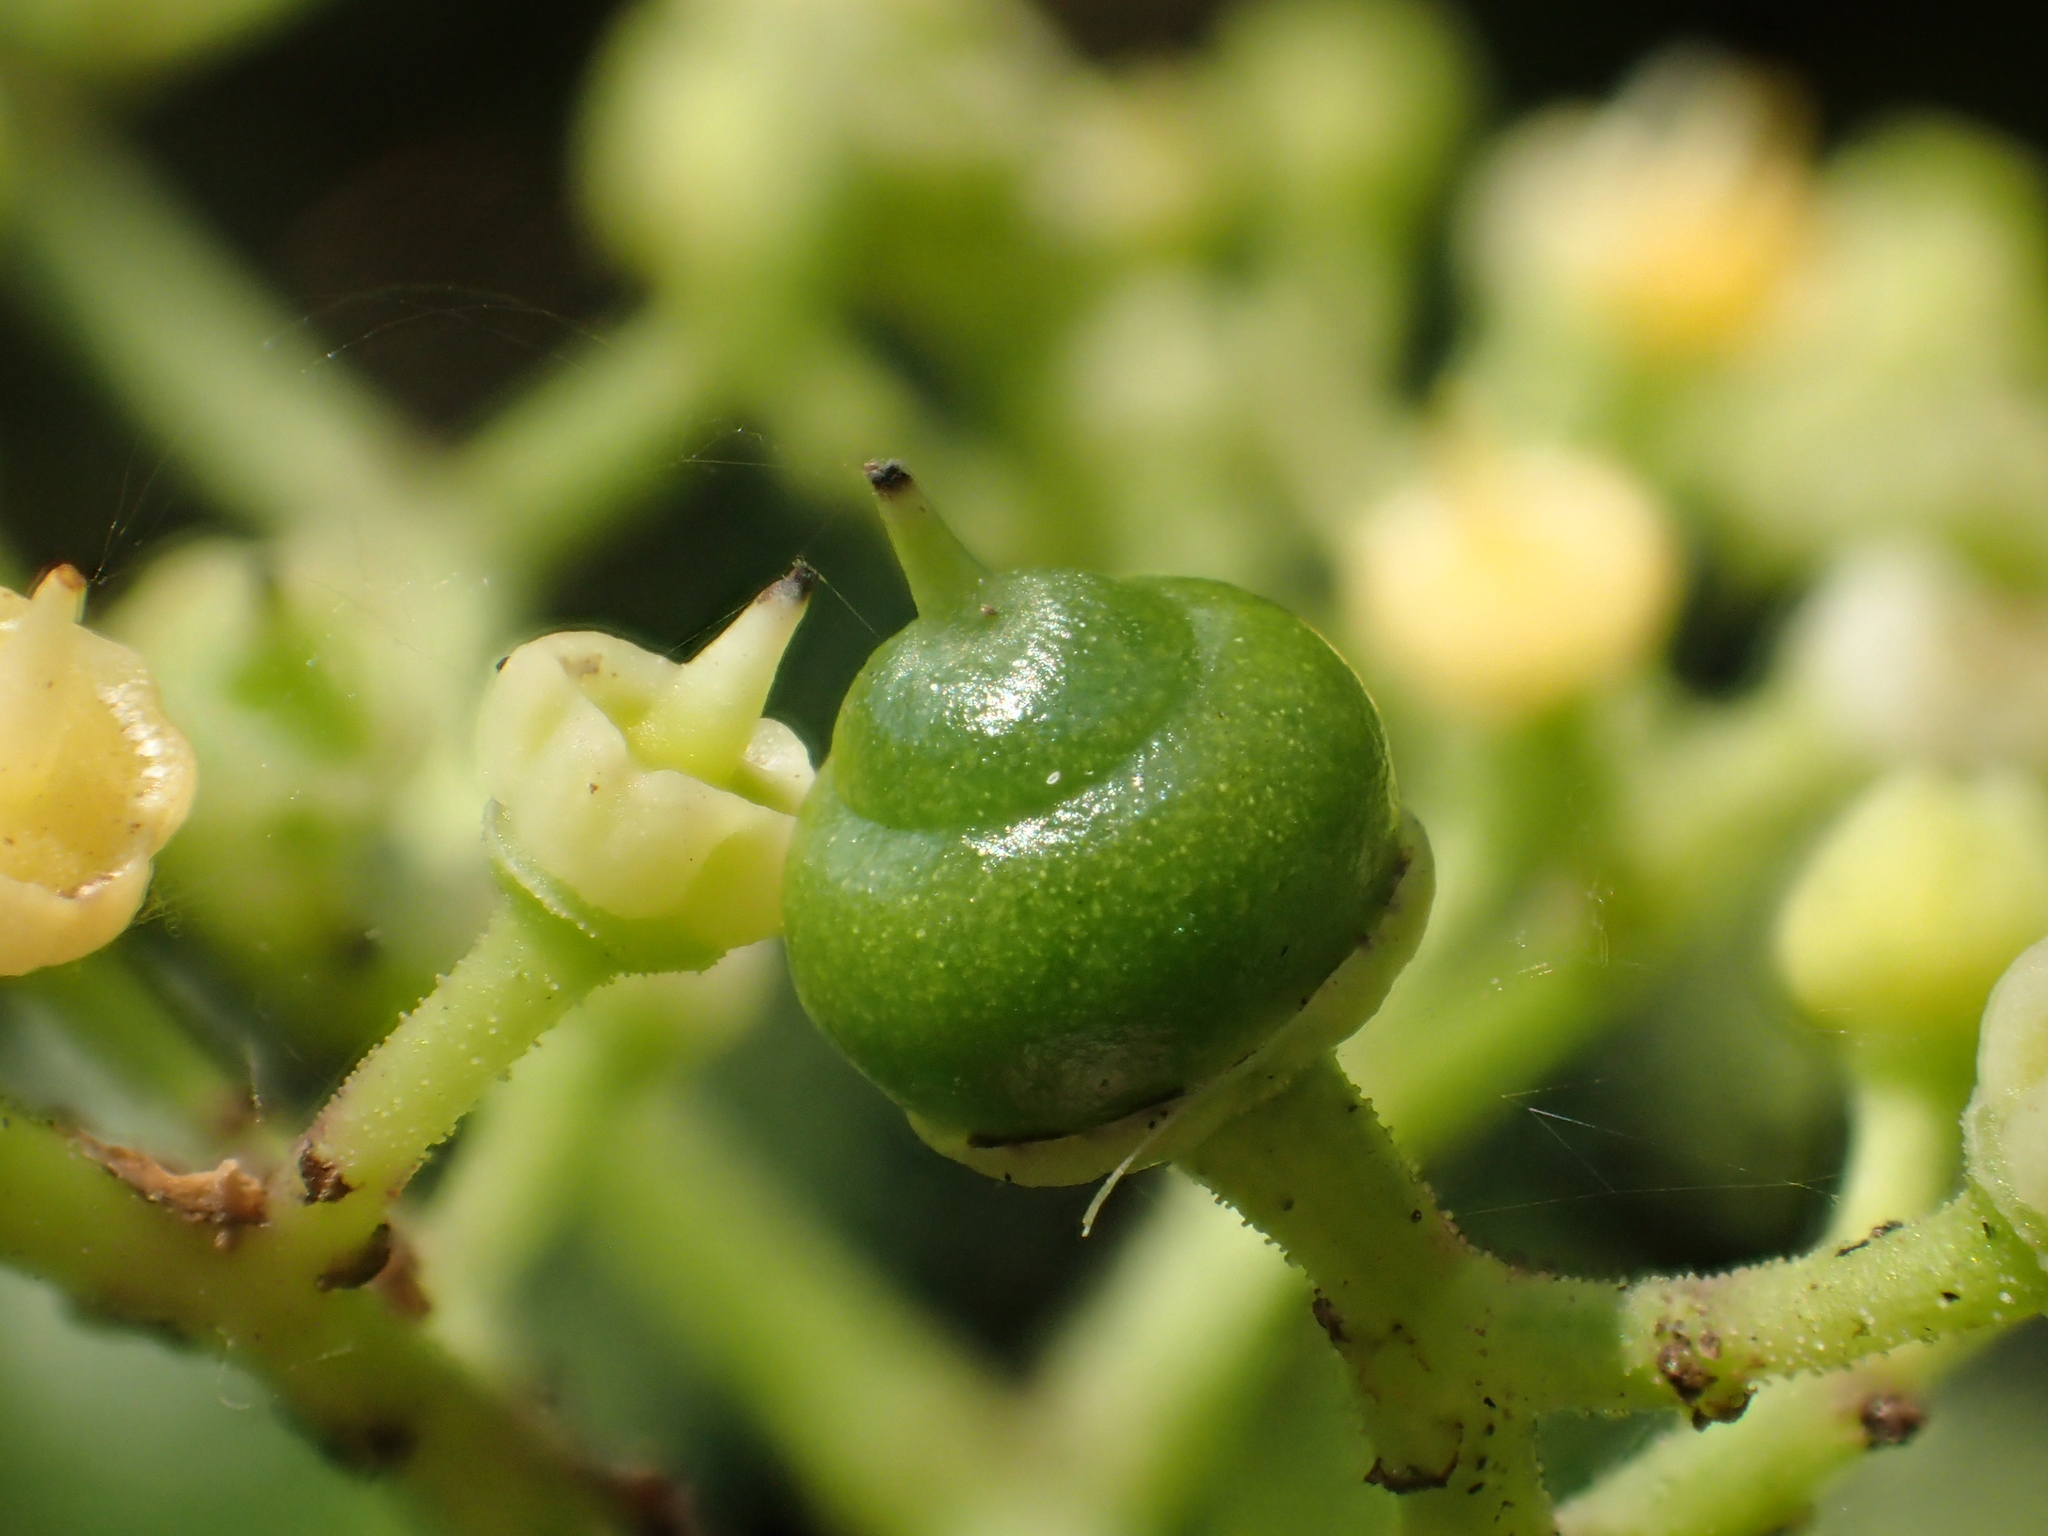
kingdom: Plantae
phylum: Tracheophyta
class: Magnoliopsida
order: Vitales
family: Vitaceae
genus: Causonis
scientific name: Causonis japonica
